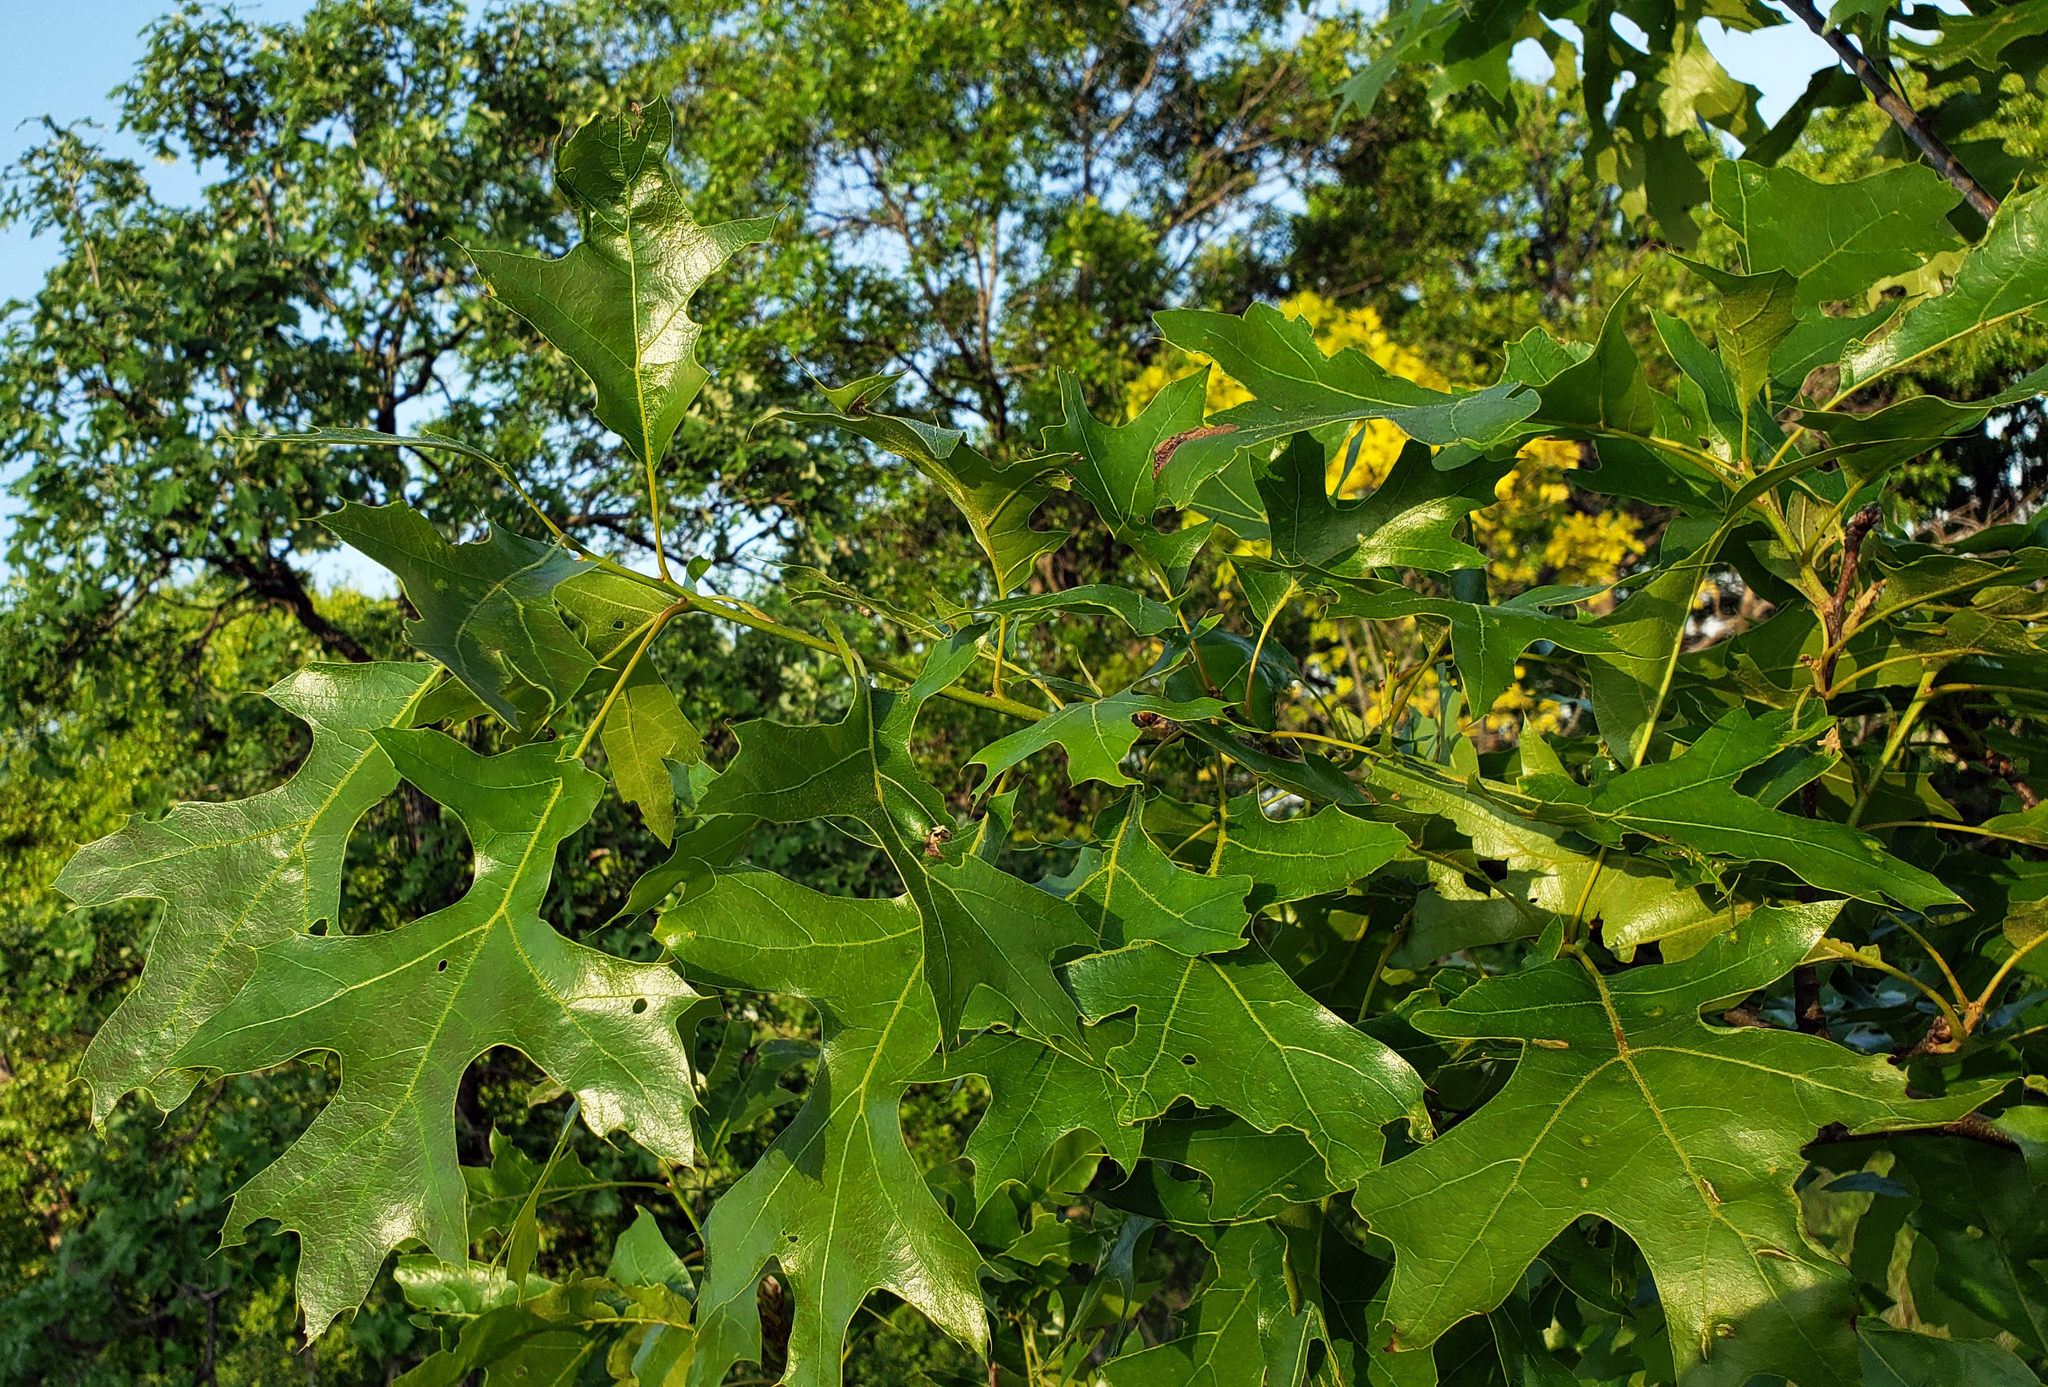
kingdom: Plantae
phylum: Tracheophyta
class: Magnoliopsida
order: Fagales
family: Fagaceae
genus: Quercus
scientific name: Quercus velutina
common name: Black oak
